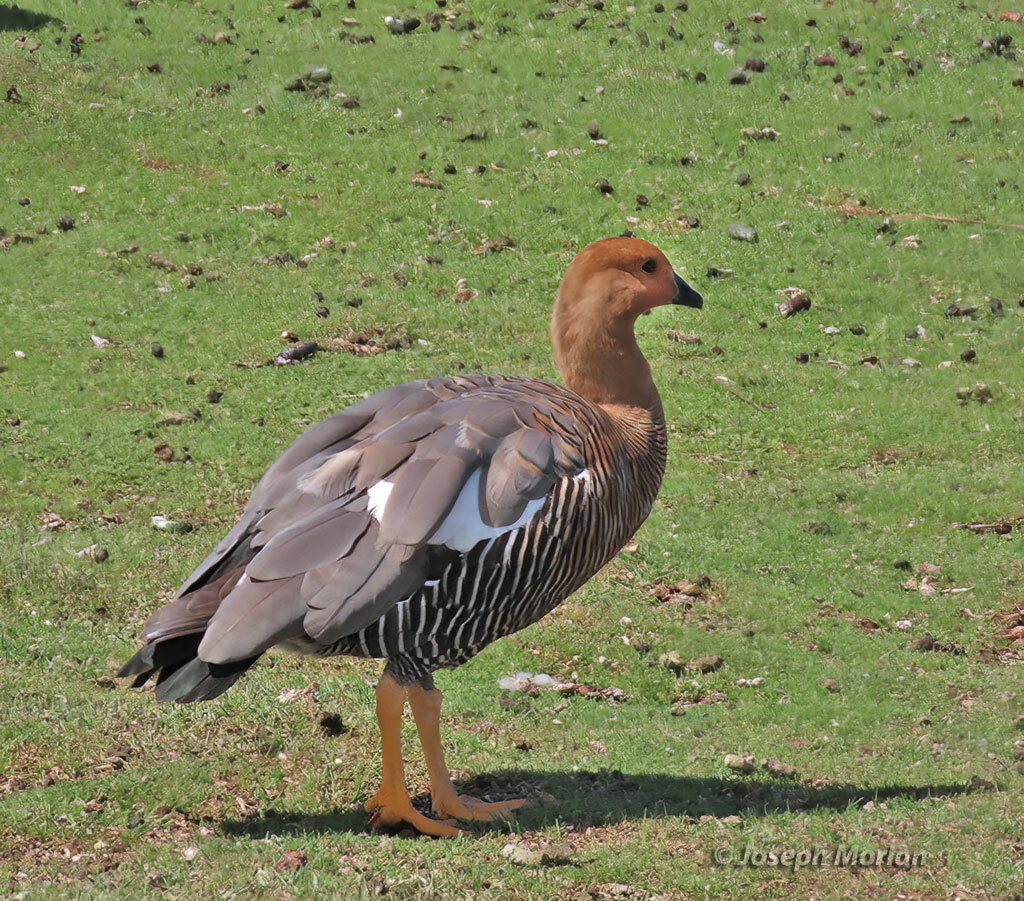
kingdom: Animalia
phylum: Chordata
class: Aves
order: Anseriformes
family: Anatidae
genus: Chloephaga
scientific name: Chloephaga picta
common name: Upland goose
